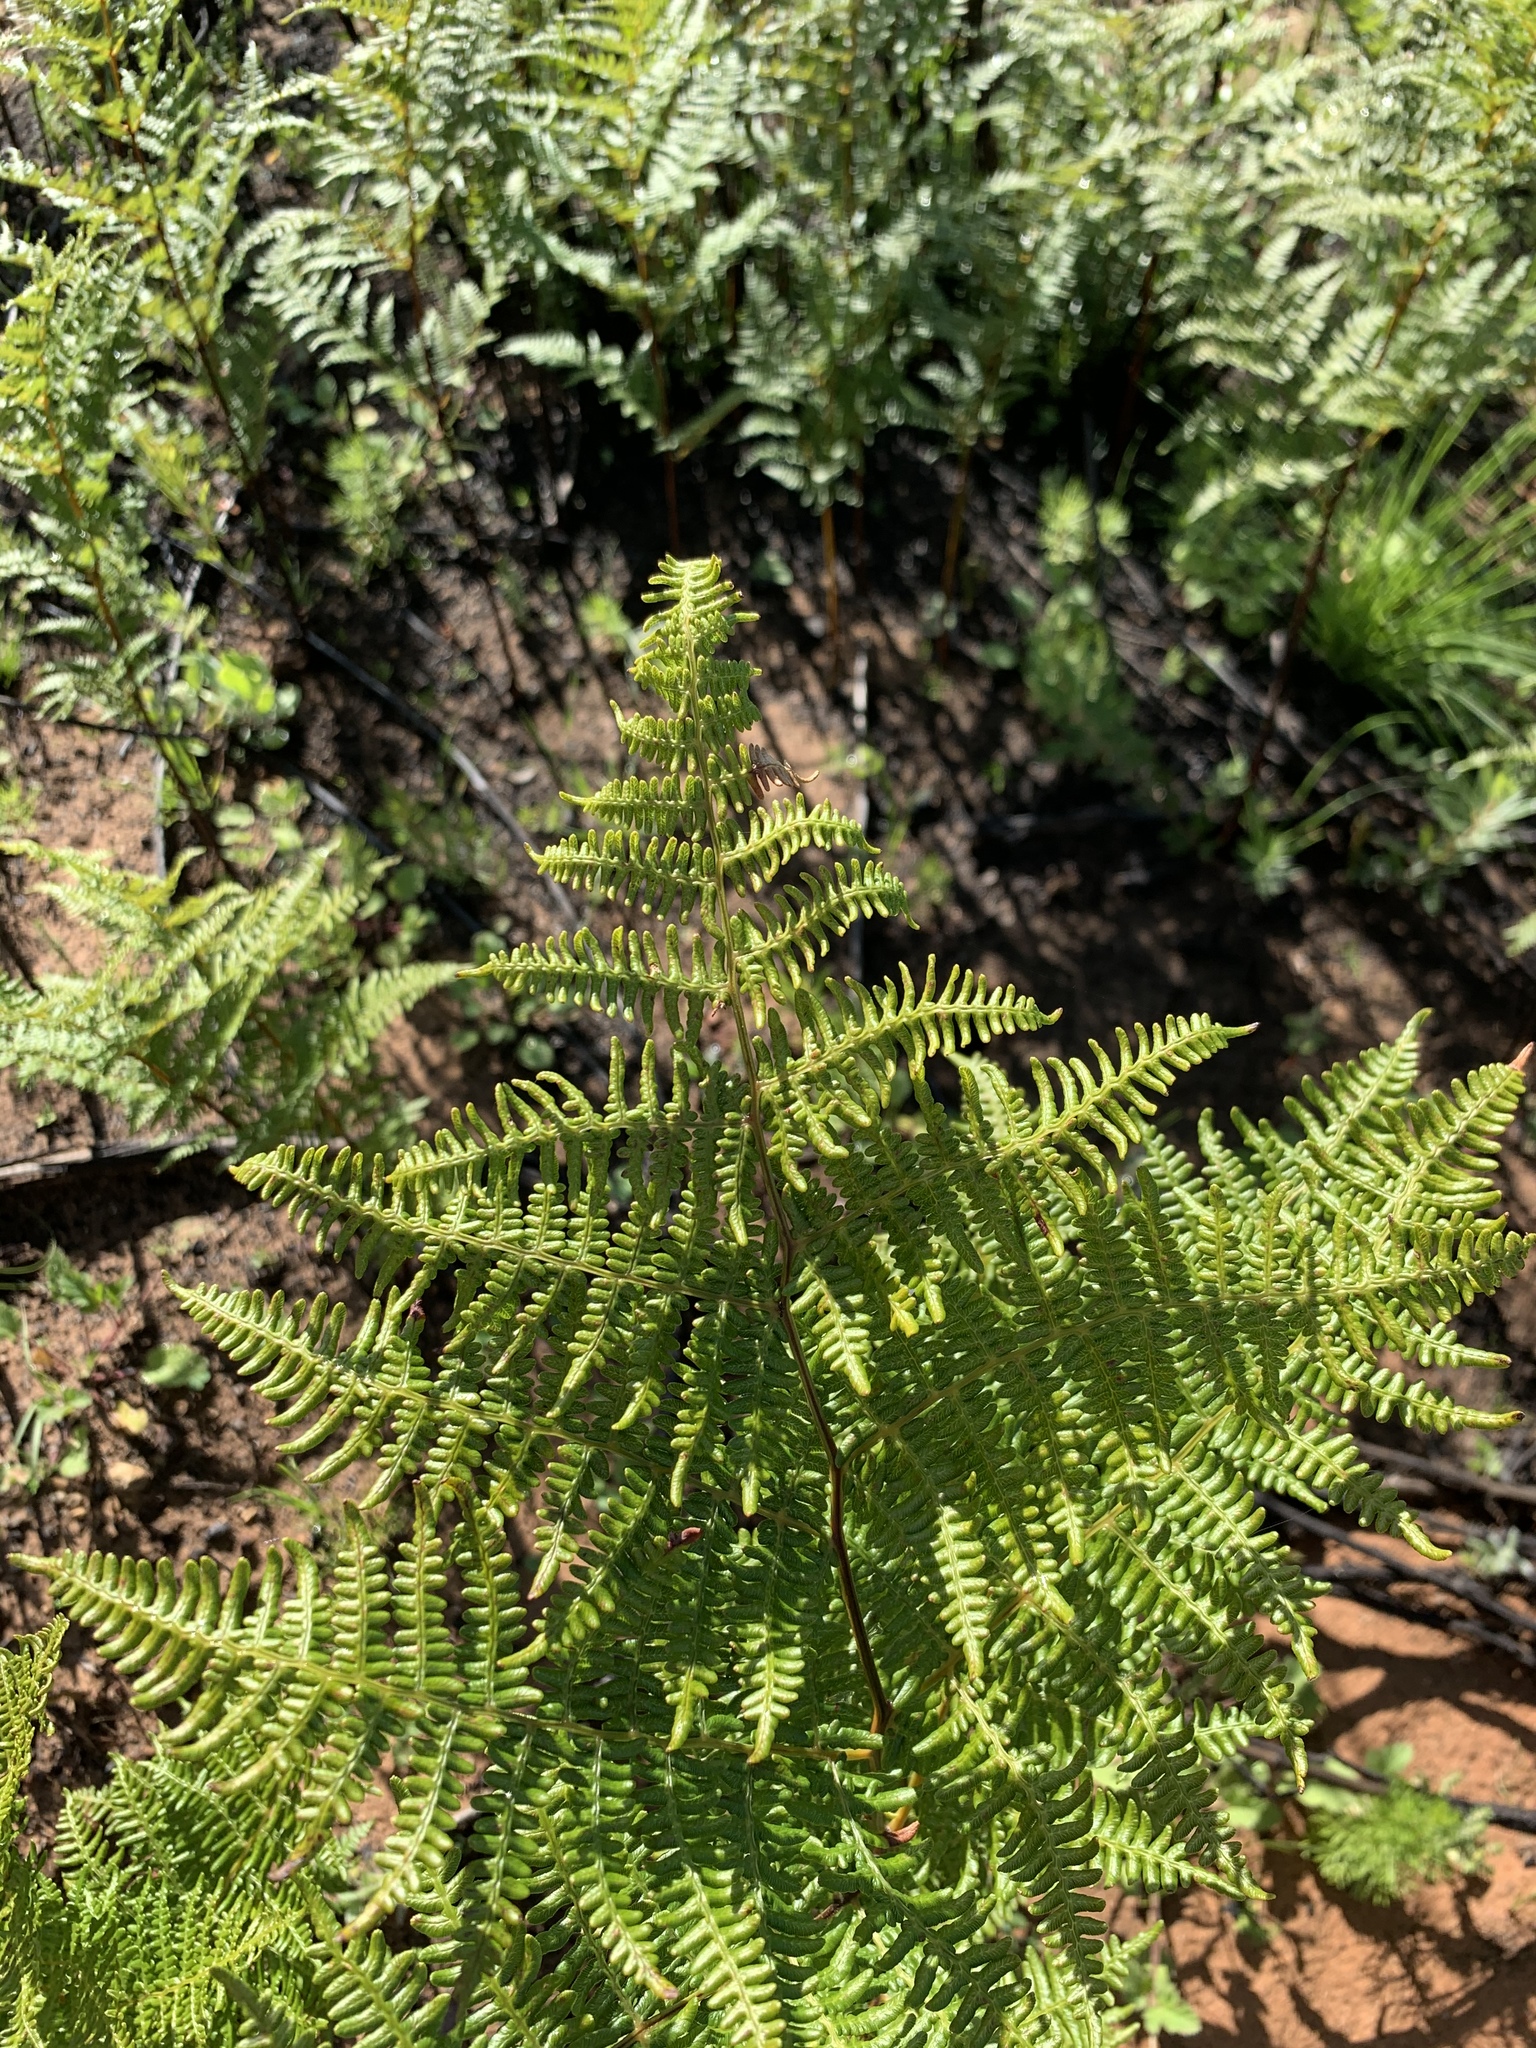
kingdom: Plantae
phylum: Tracheophyta
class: Polypodiopsida
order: Polypodiales
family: Dennstaedtiaceae
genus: Pteridium
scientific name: Pteridium aquilinum
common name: Bracken
